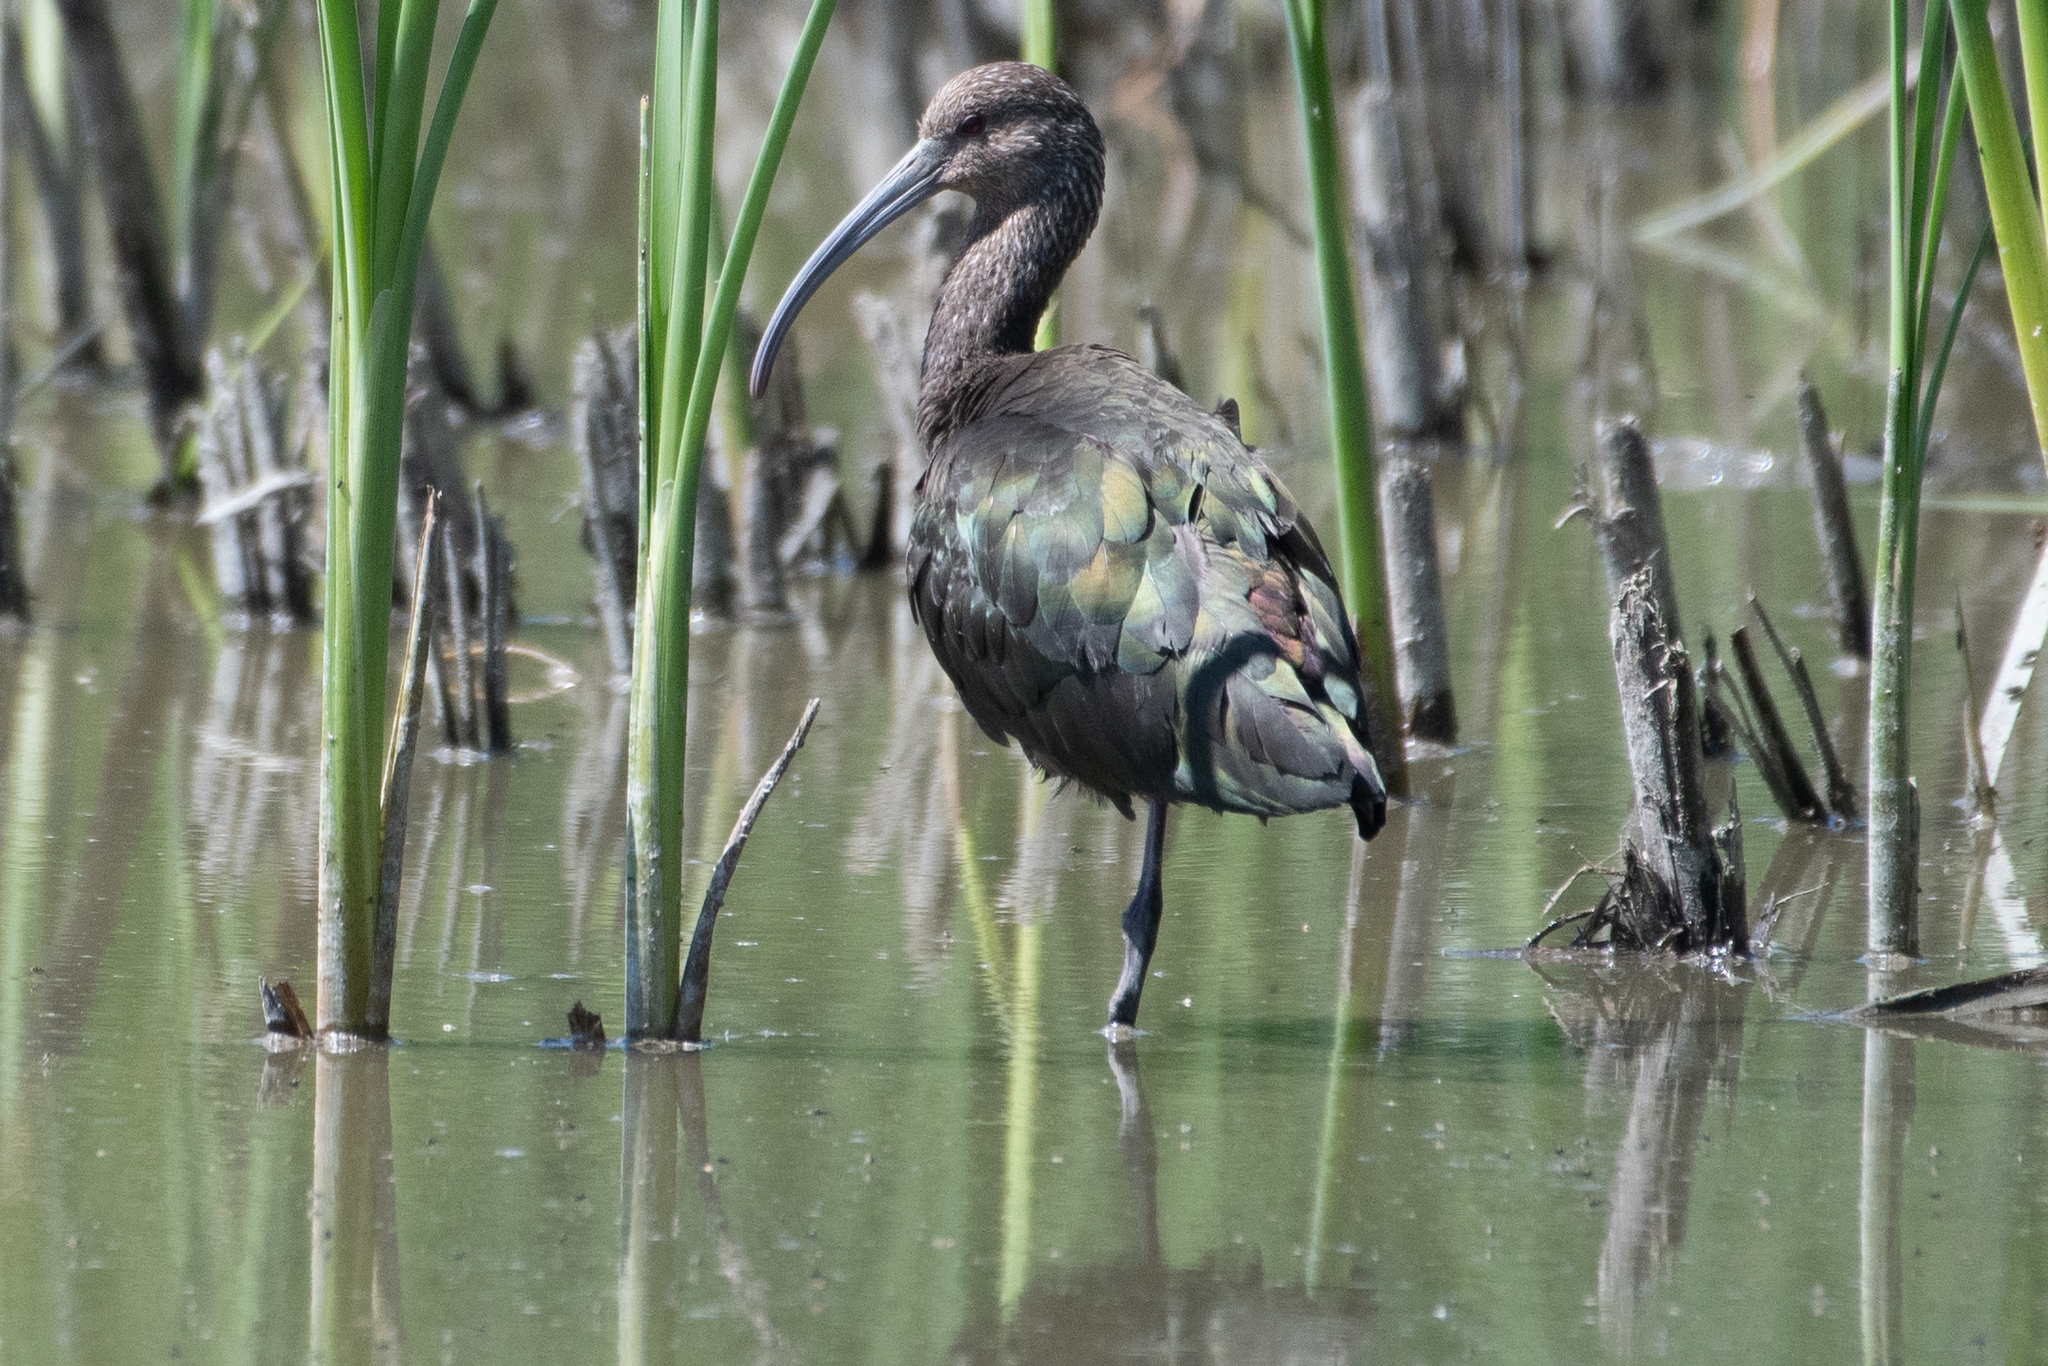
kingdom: Animalia
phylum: Chordata
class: Aves
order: Pelecaniformes
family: Threskiornithidae
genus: Plegadis
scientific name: Plegadis chihi
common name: White-faced ibis
